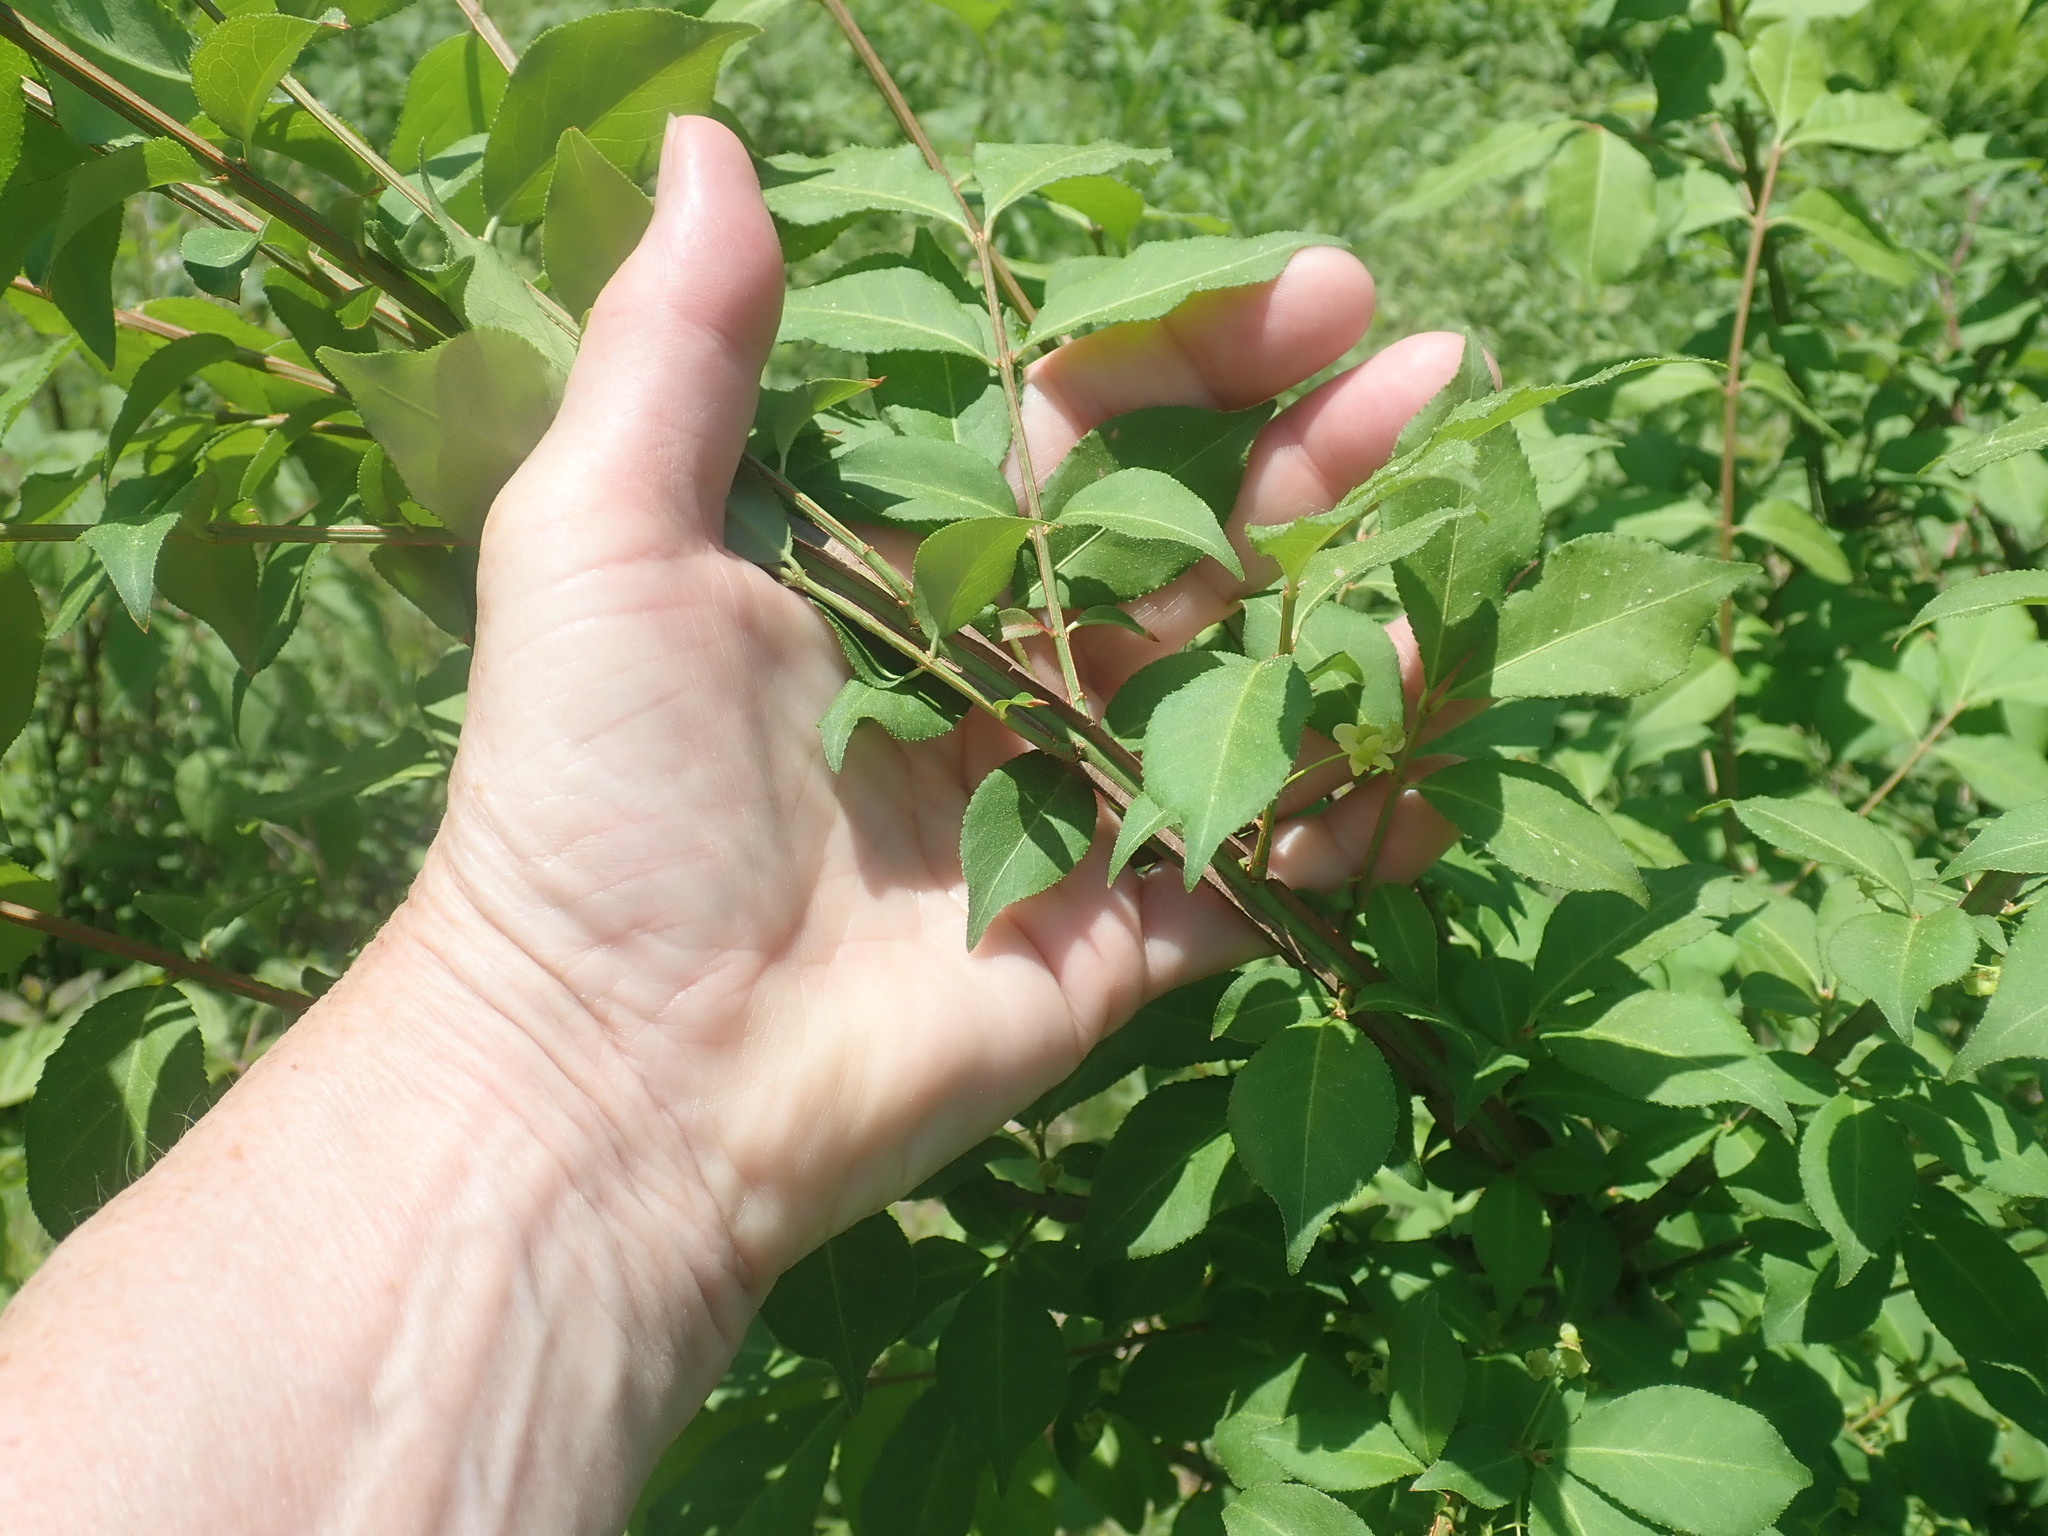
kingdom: Plantae
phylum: Tracheophyta
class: Magnoliopsida
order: Celastrales
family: Celastraceae
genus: Euonymus
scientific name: Euonymus alatus
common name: Winged euonymus
